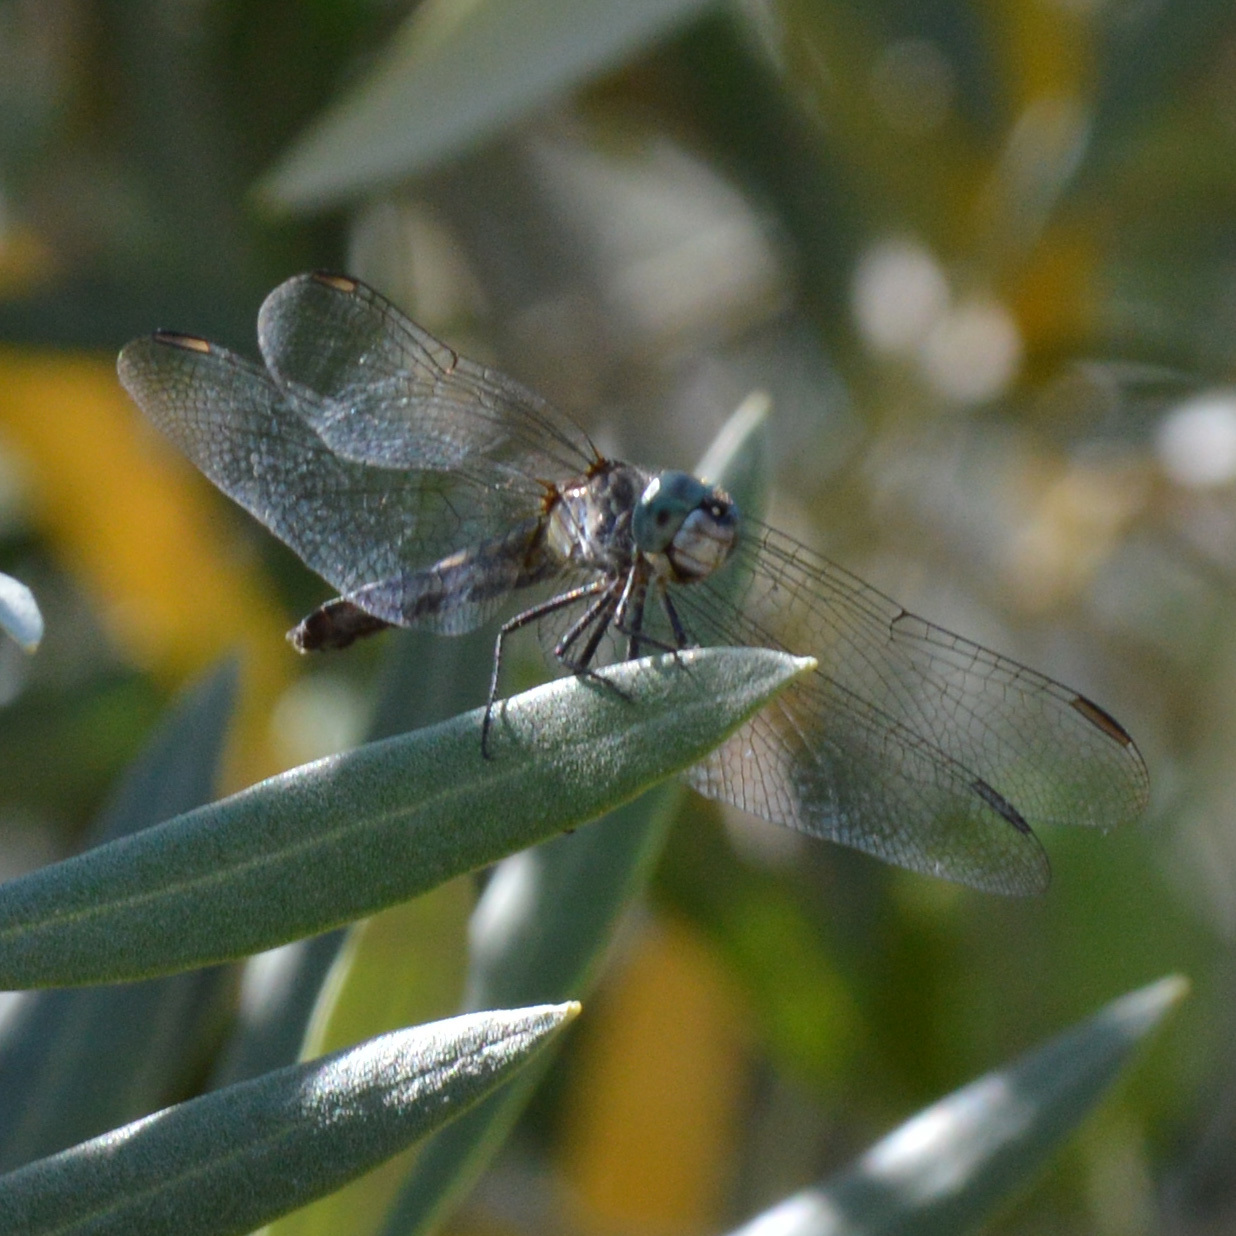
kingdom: Animalia
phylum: Arthropoda
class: Insecta
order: Odonata
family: Libellulidae
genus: Pachydiplax
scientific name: Pachydiplax longipennis
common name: Blue dasher
